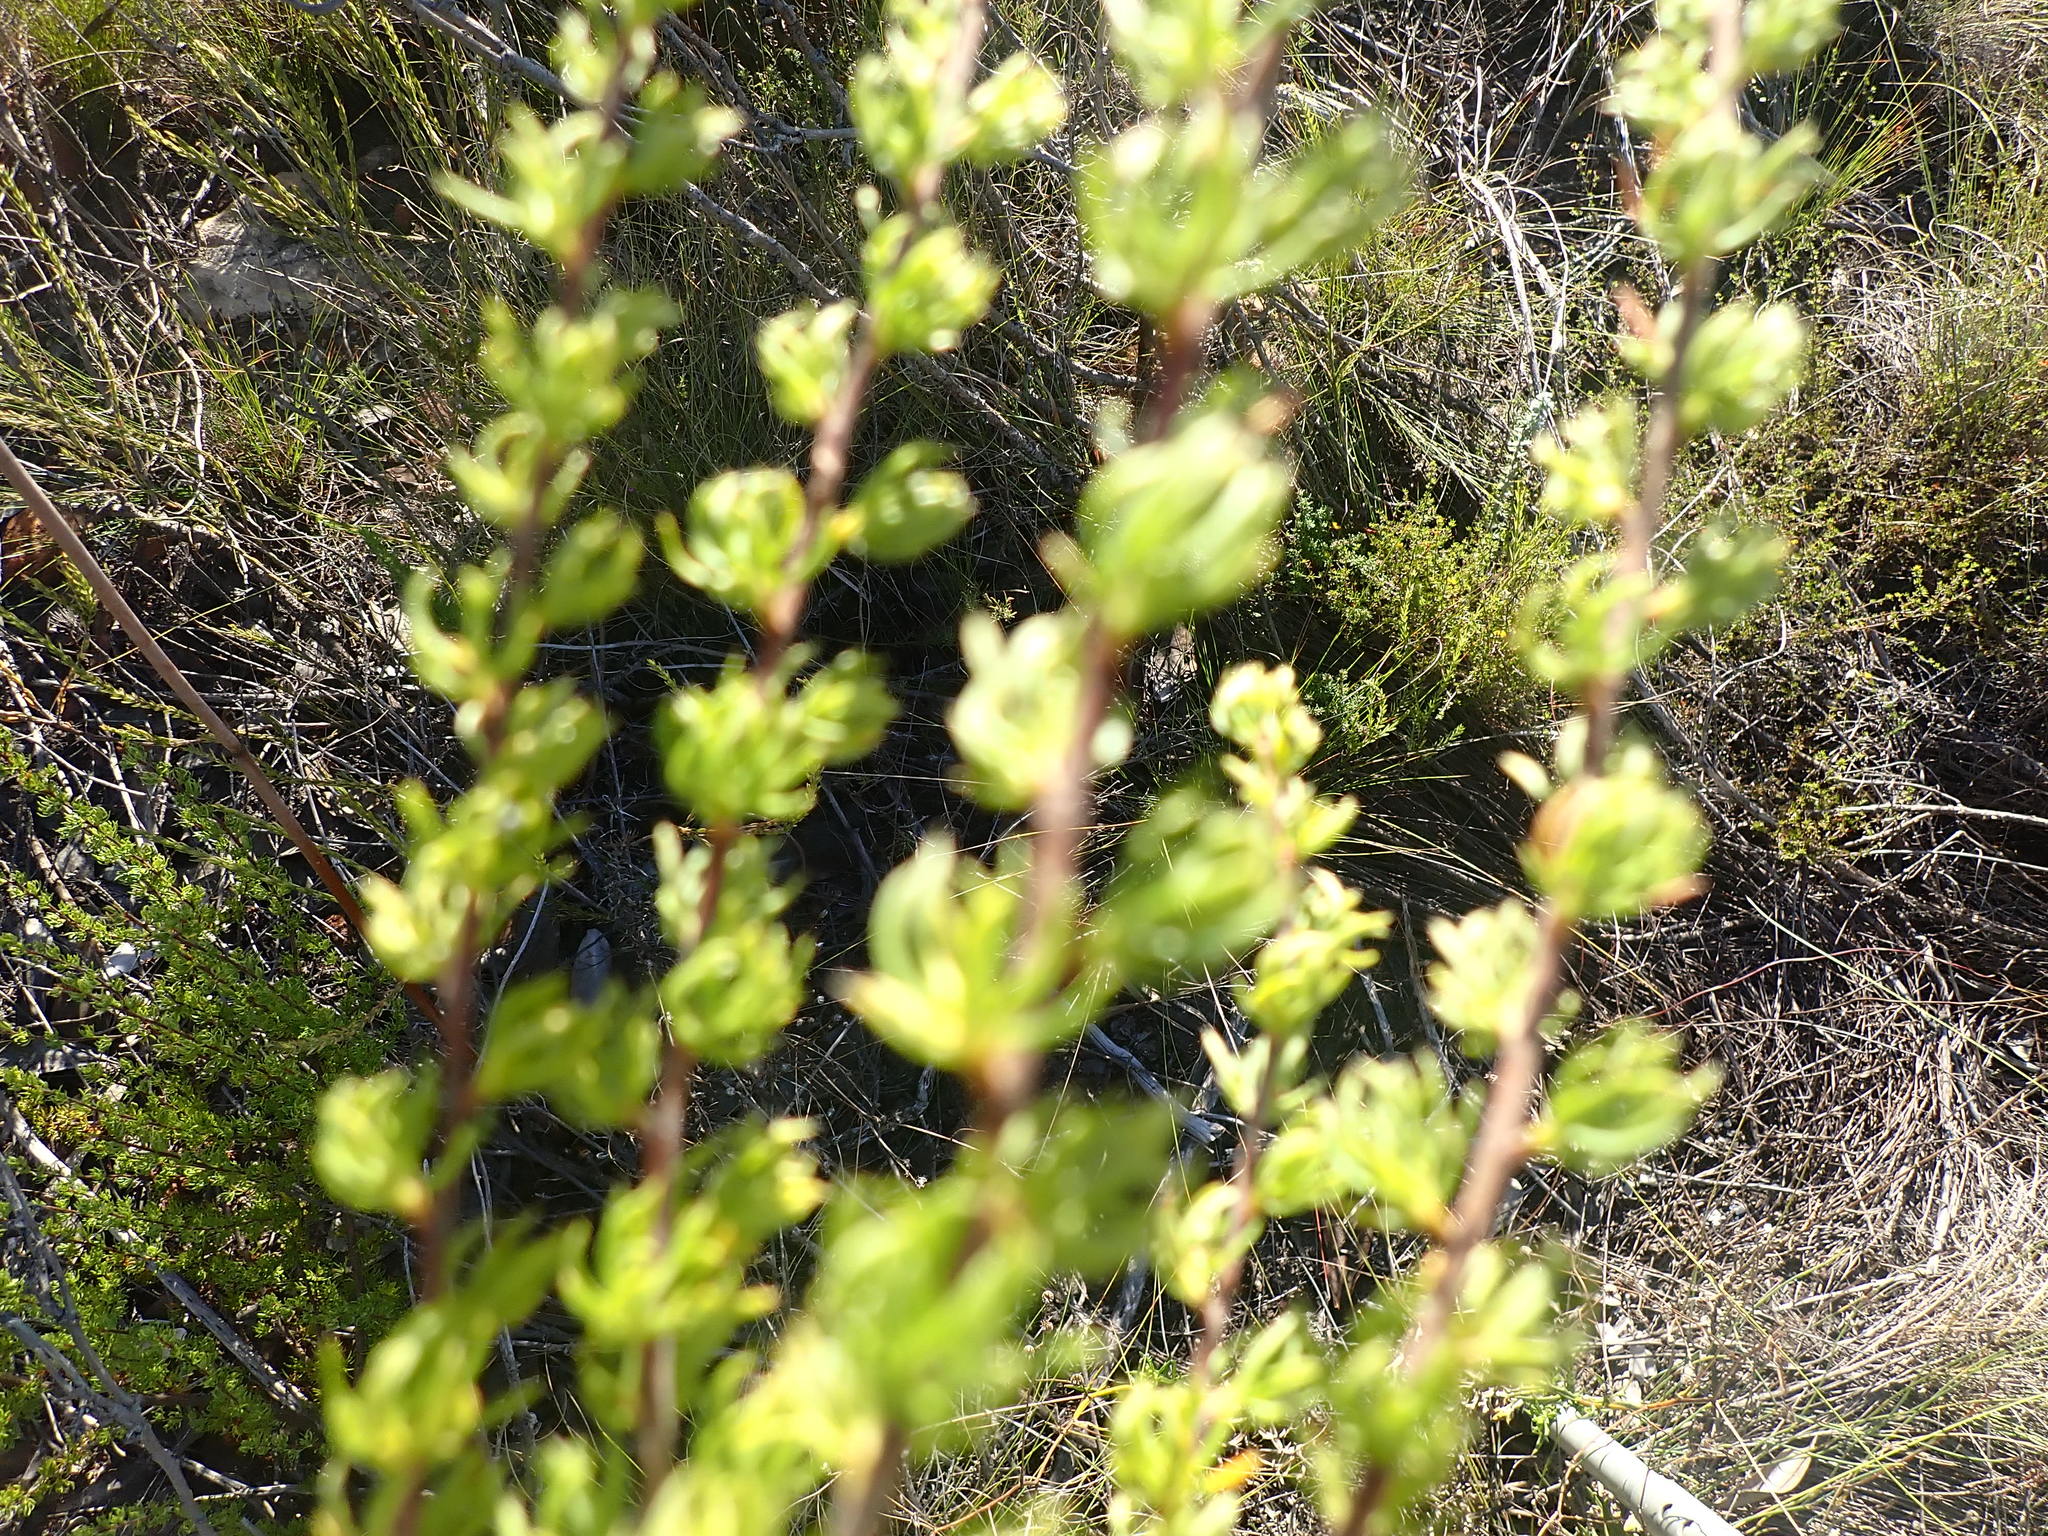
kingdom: Plantae
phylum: Tracheophyta
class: Magnoliopsida
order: Rosales
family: Rosaceae
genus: Cliffortia
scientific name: Cliffortia arcuata
